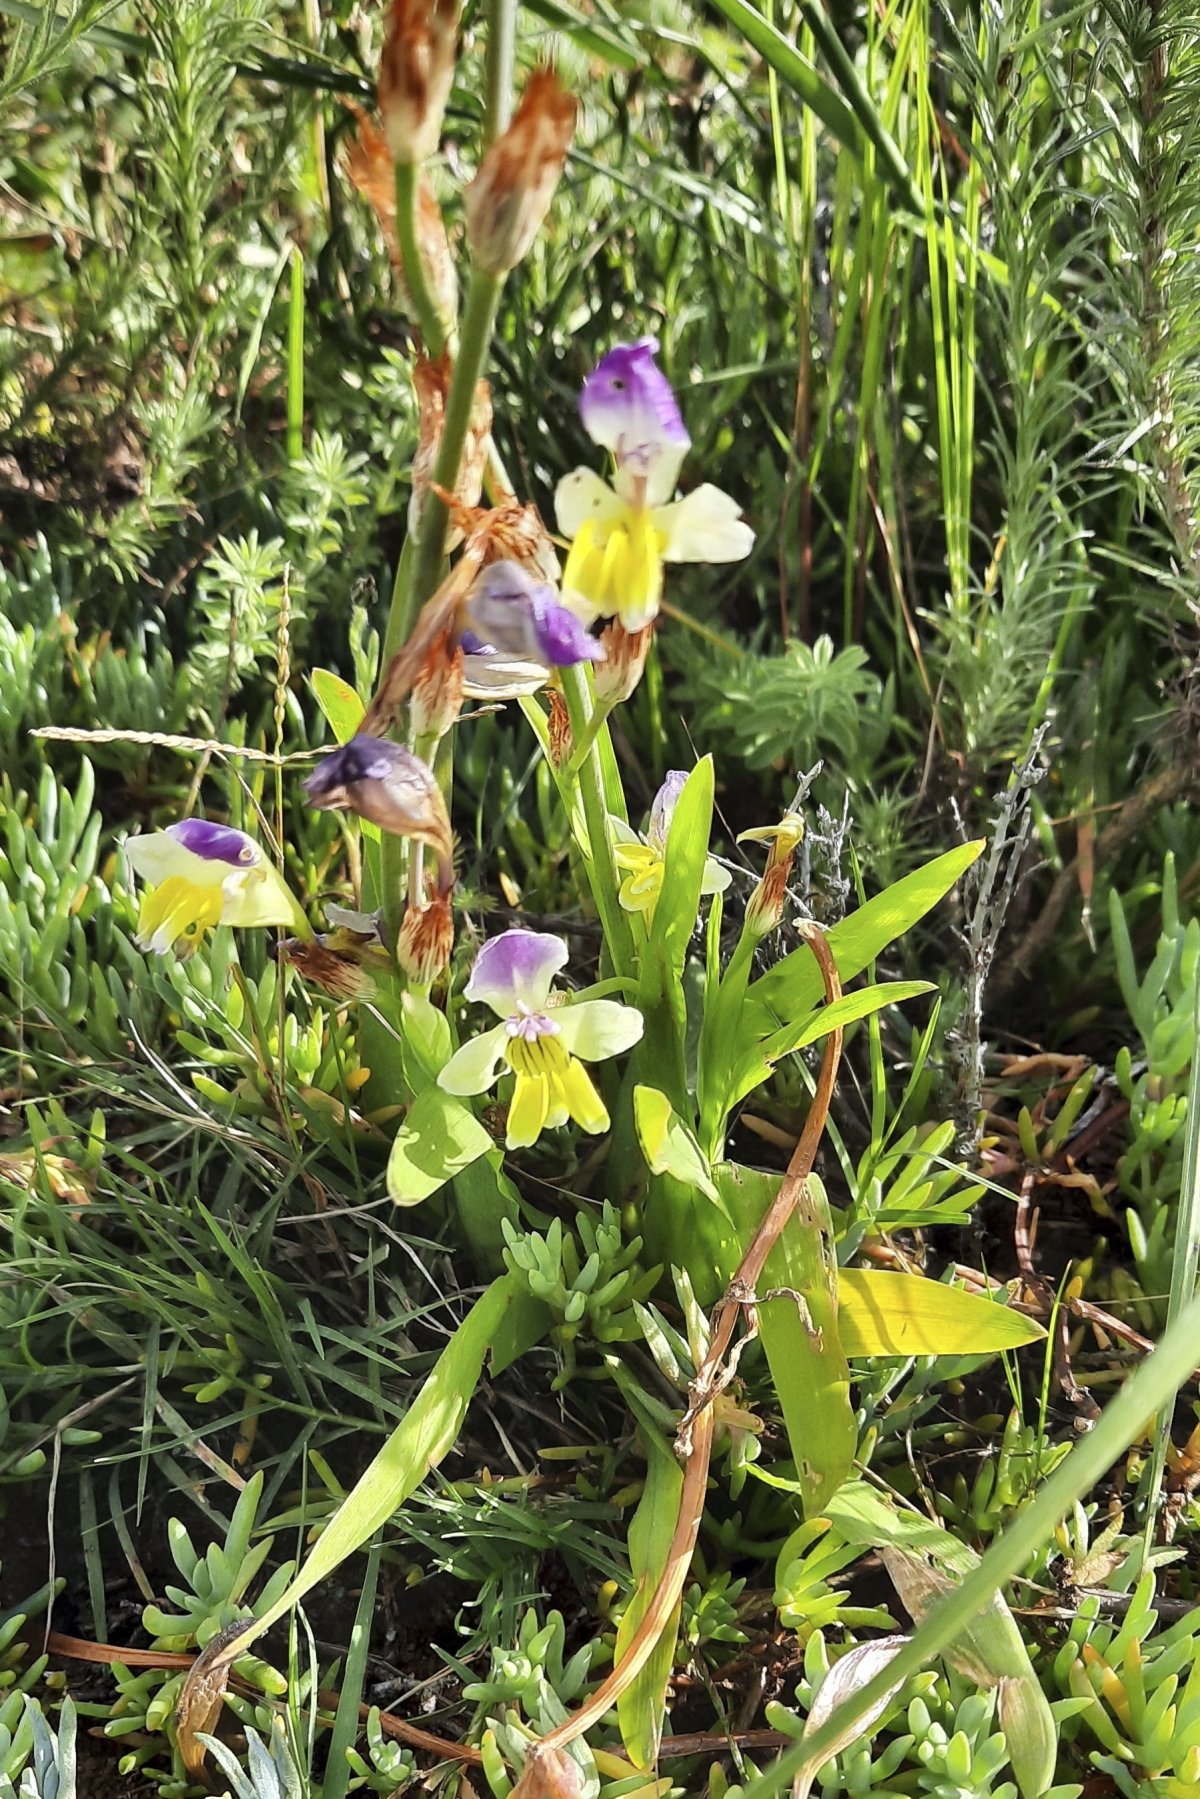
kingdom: Plantae
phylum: Tracheophyta
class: Liliopsida
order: Asparagales
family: Iridaceae
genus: Sparaxis
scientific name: Sparaxis villosa
